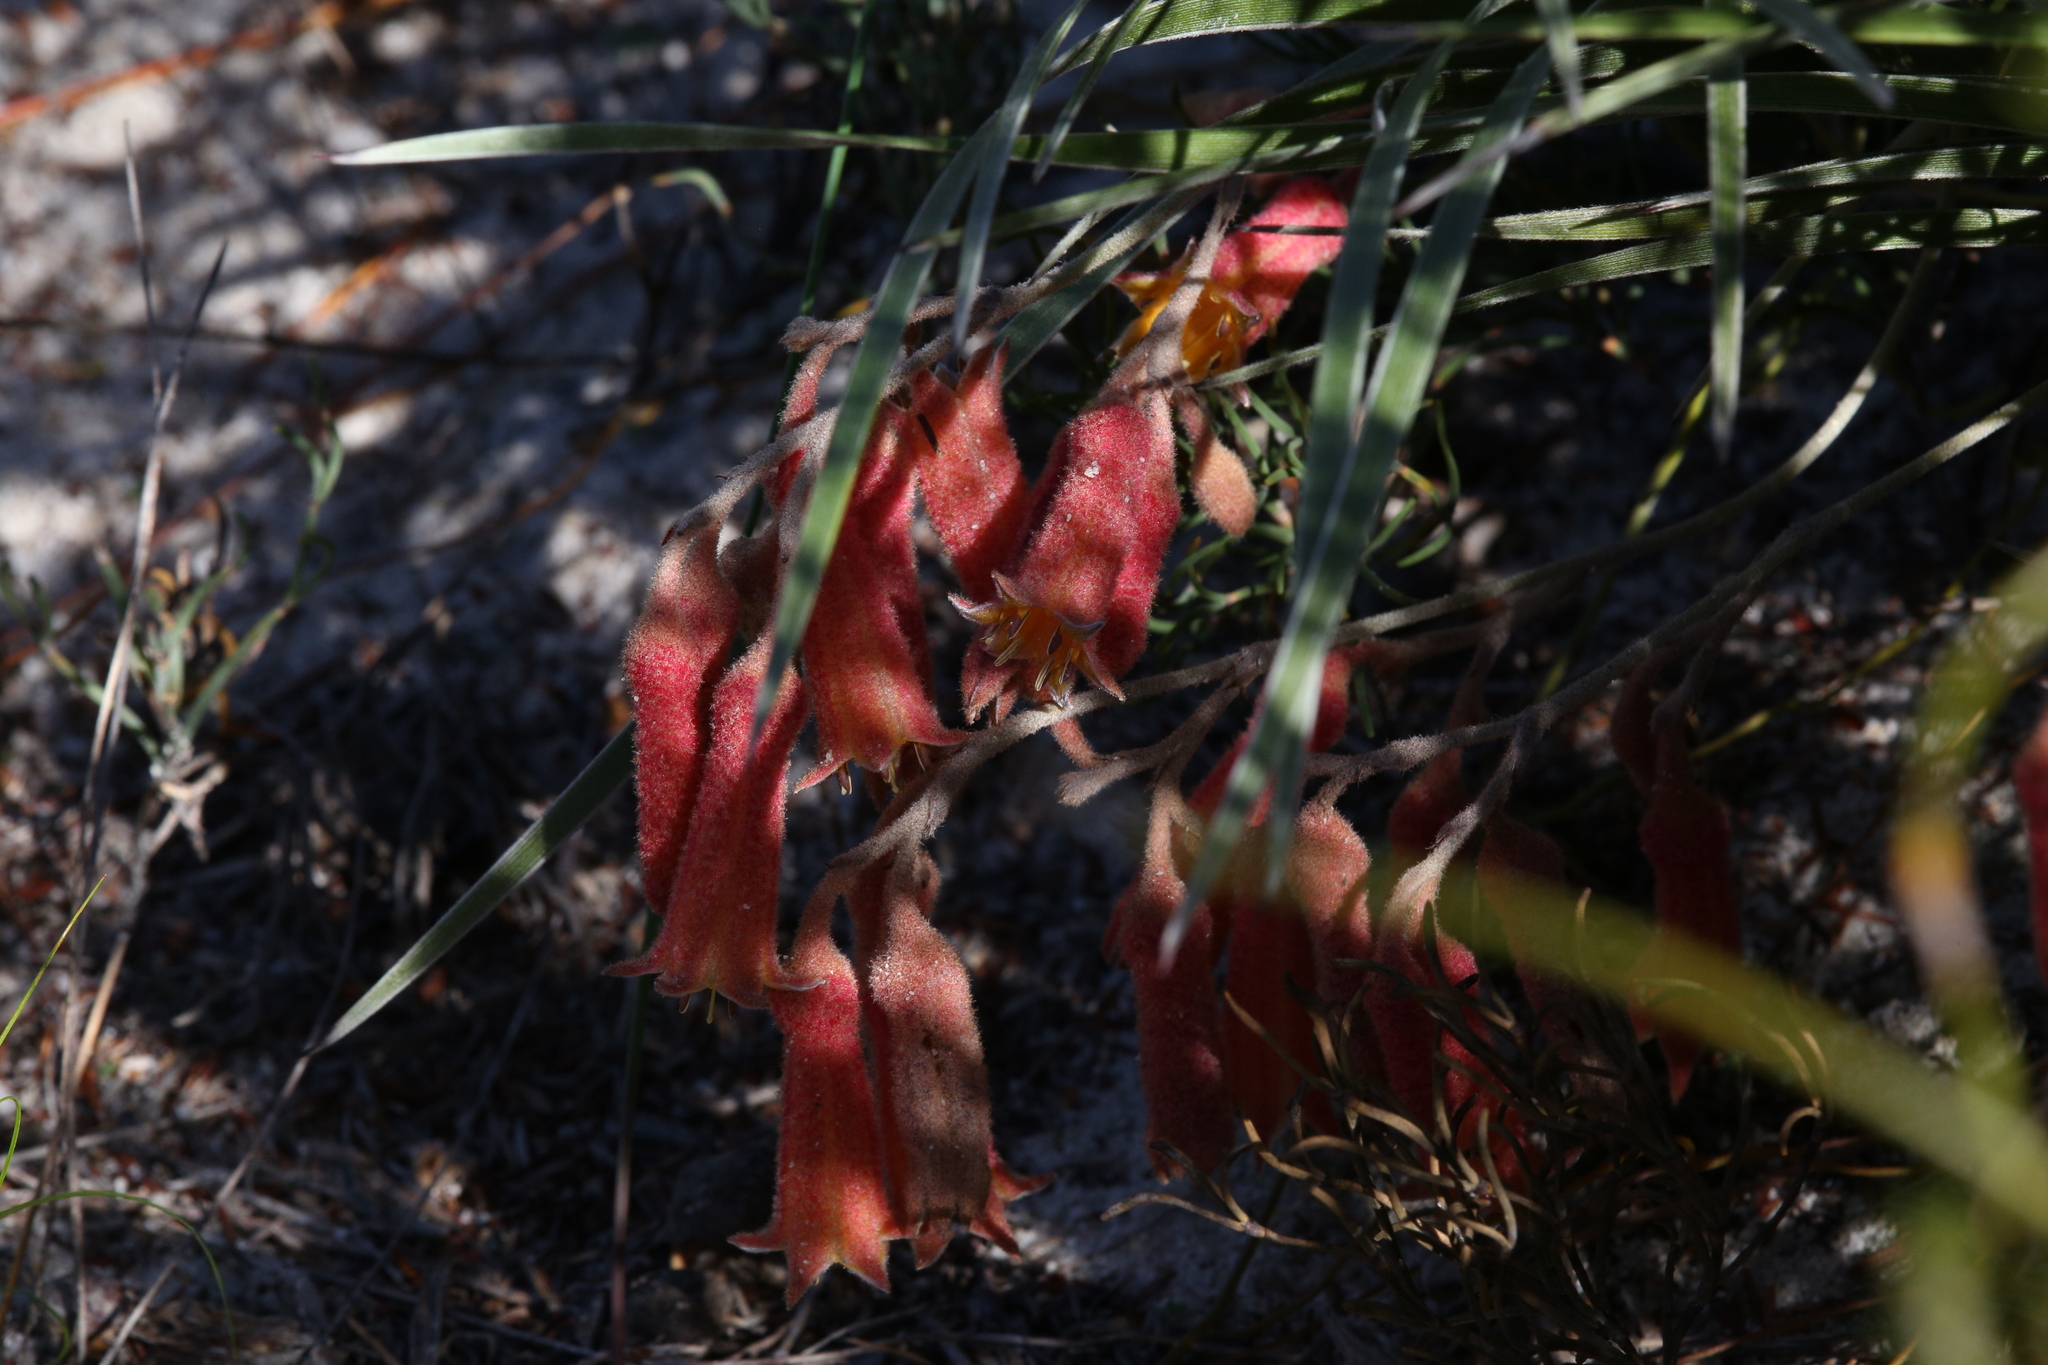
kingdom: Plantae
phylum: Tracheophyta
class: Liliopsida
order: Commelinales
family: Haemodoraceae
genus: Blancoa
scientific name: Blancoa canescens
